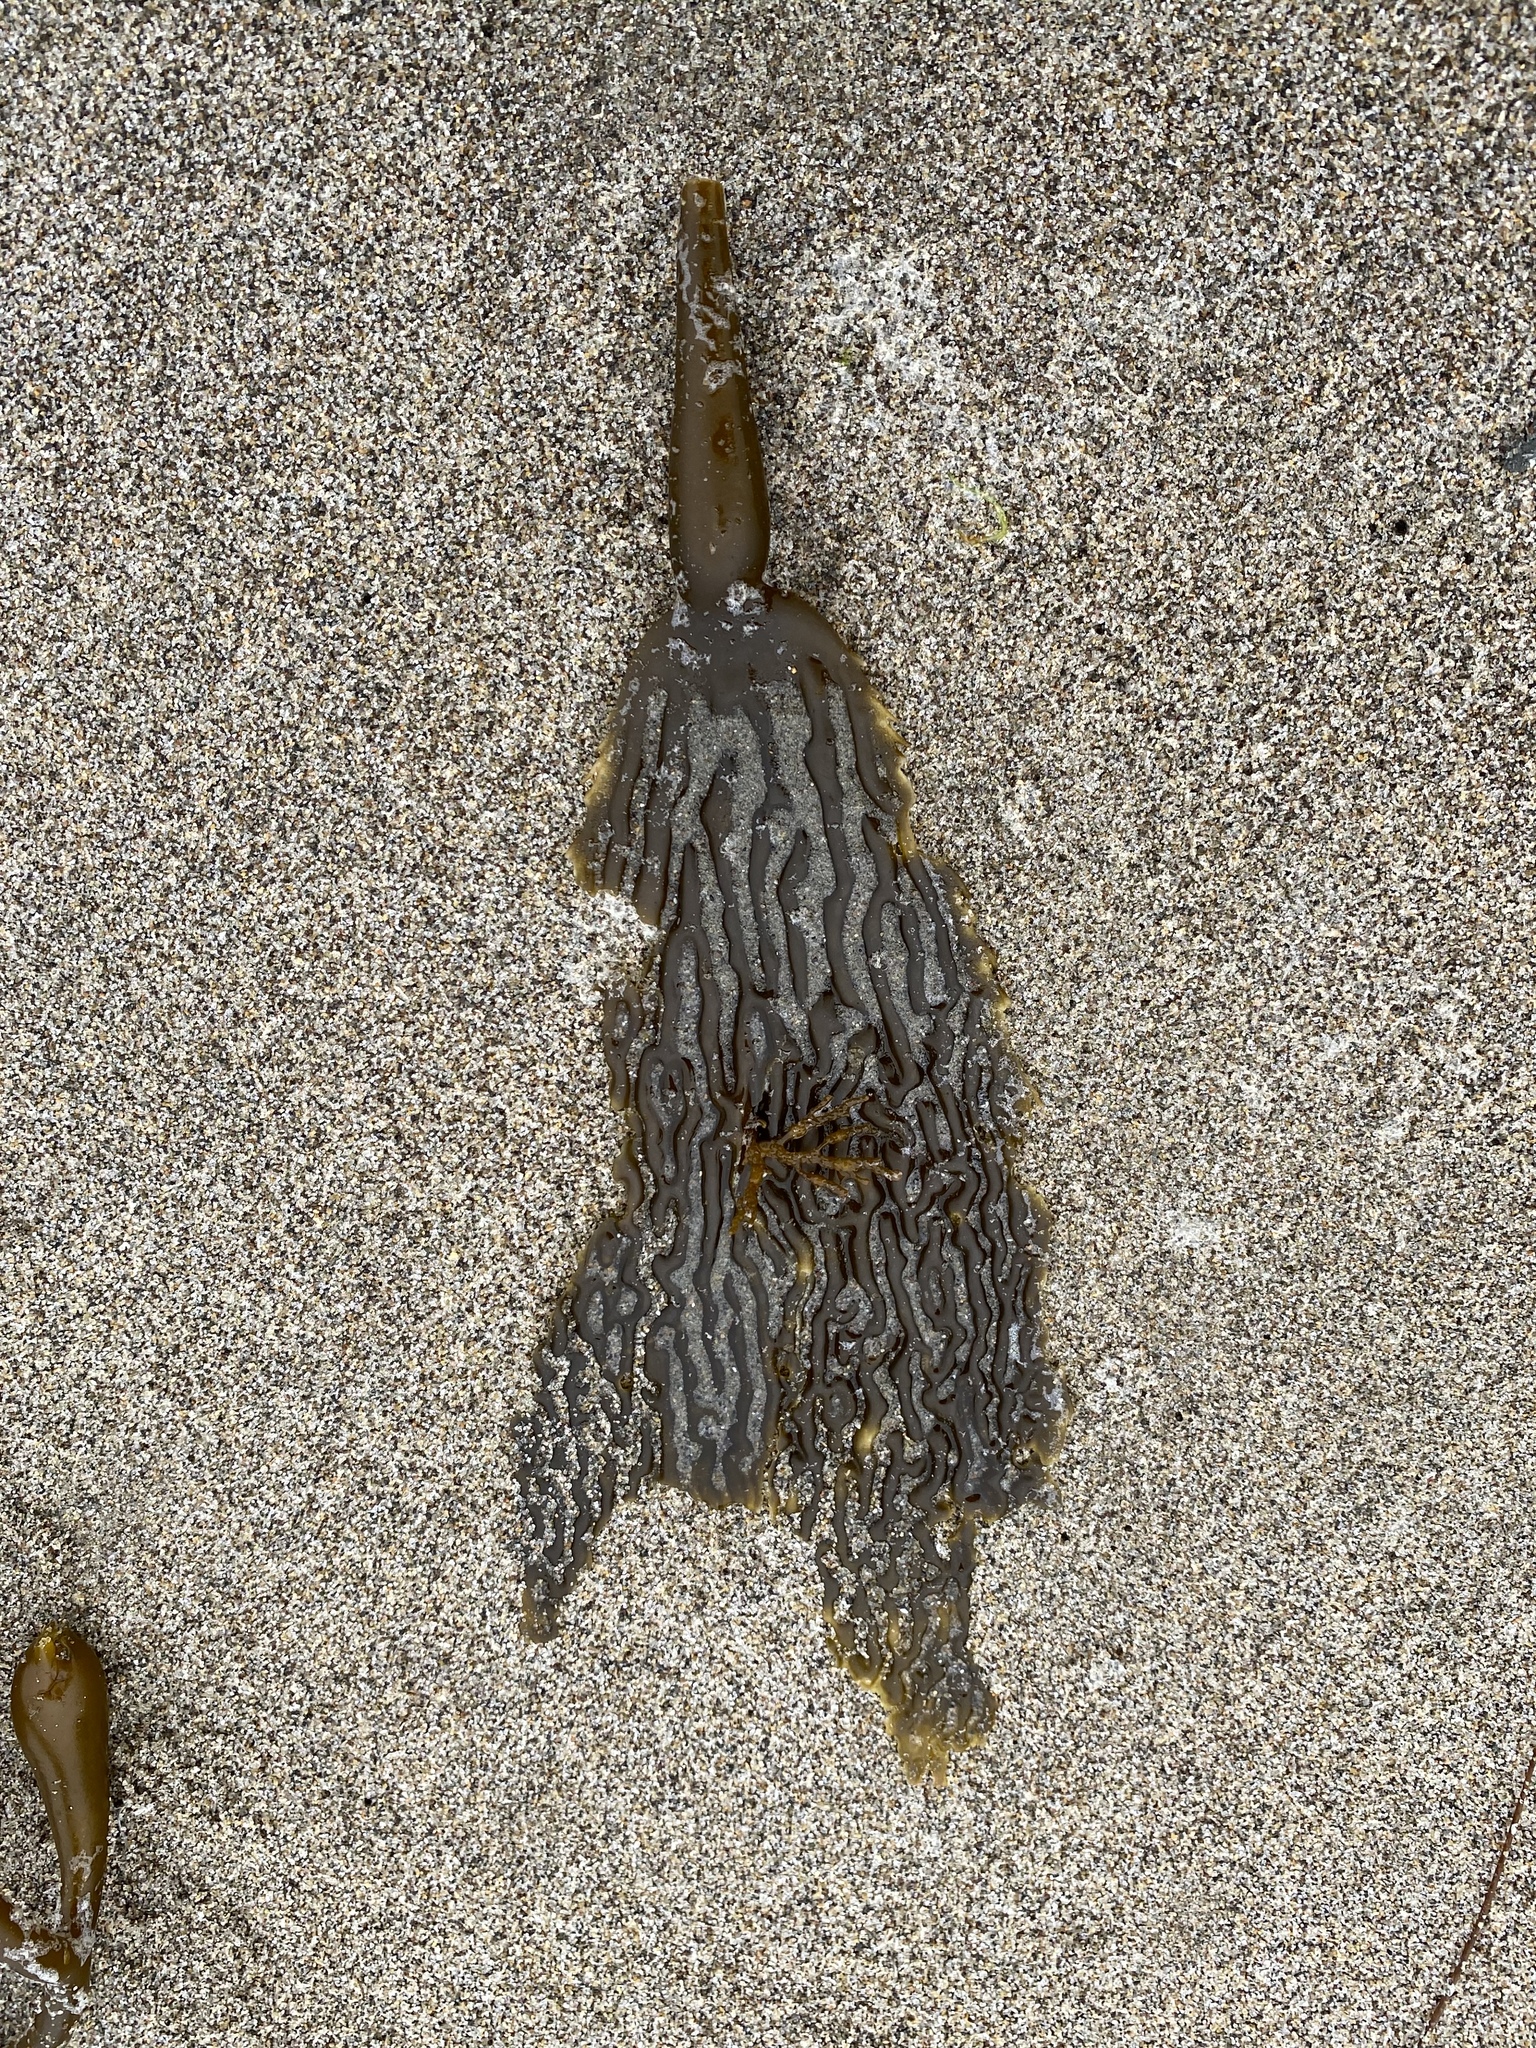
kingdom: Chromista
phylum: Ochrophyta
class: Phaeophyceae
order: Laminariales
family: Laminariaceae
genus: Macrocystis
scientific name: Macrocystis pyrifera
